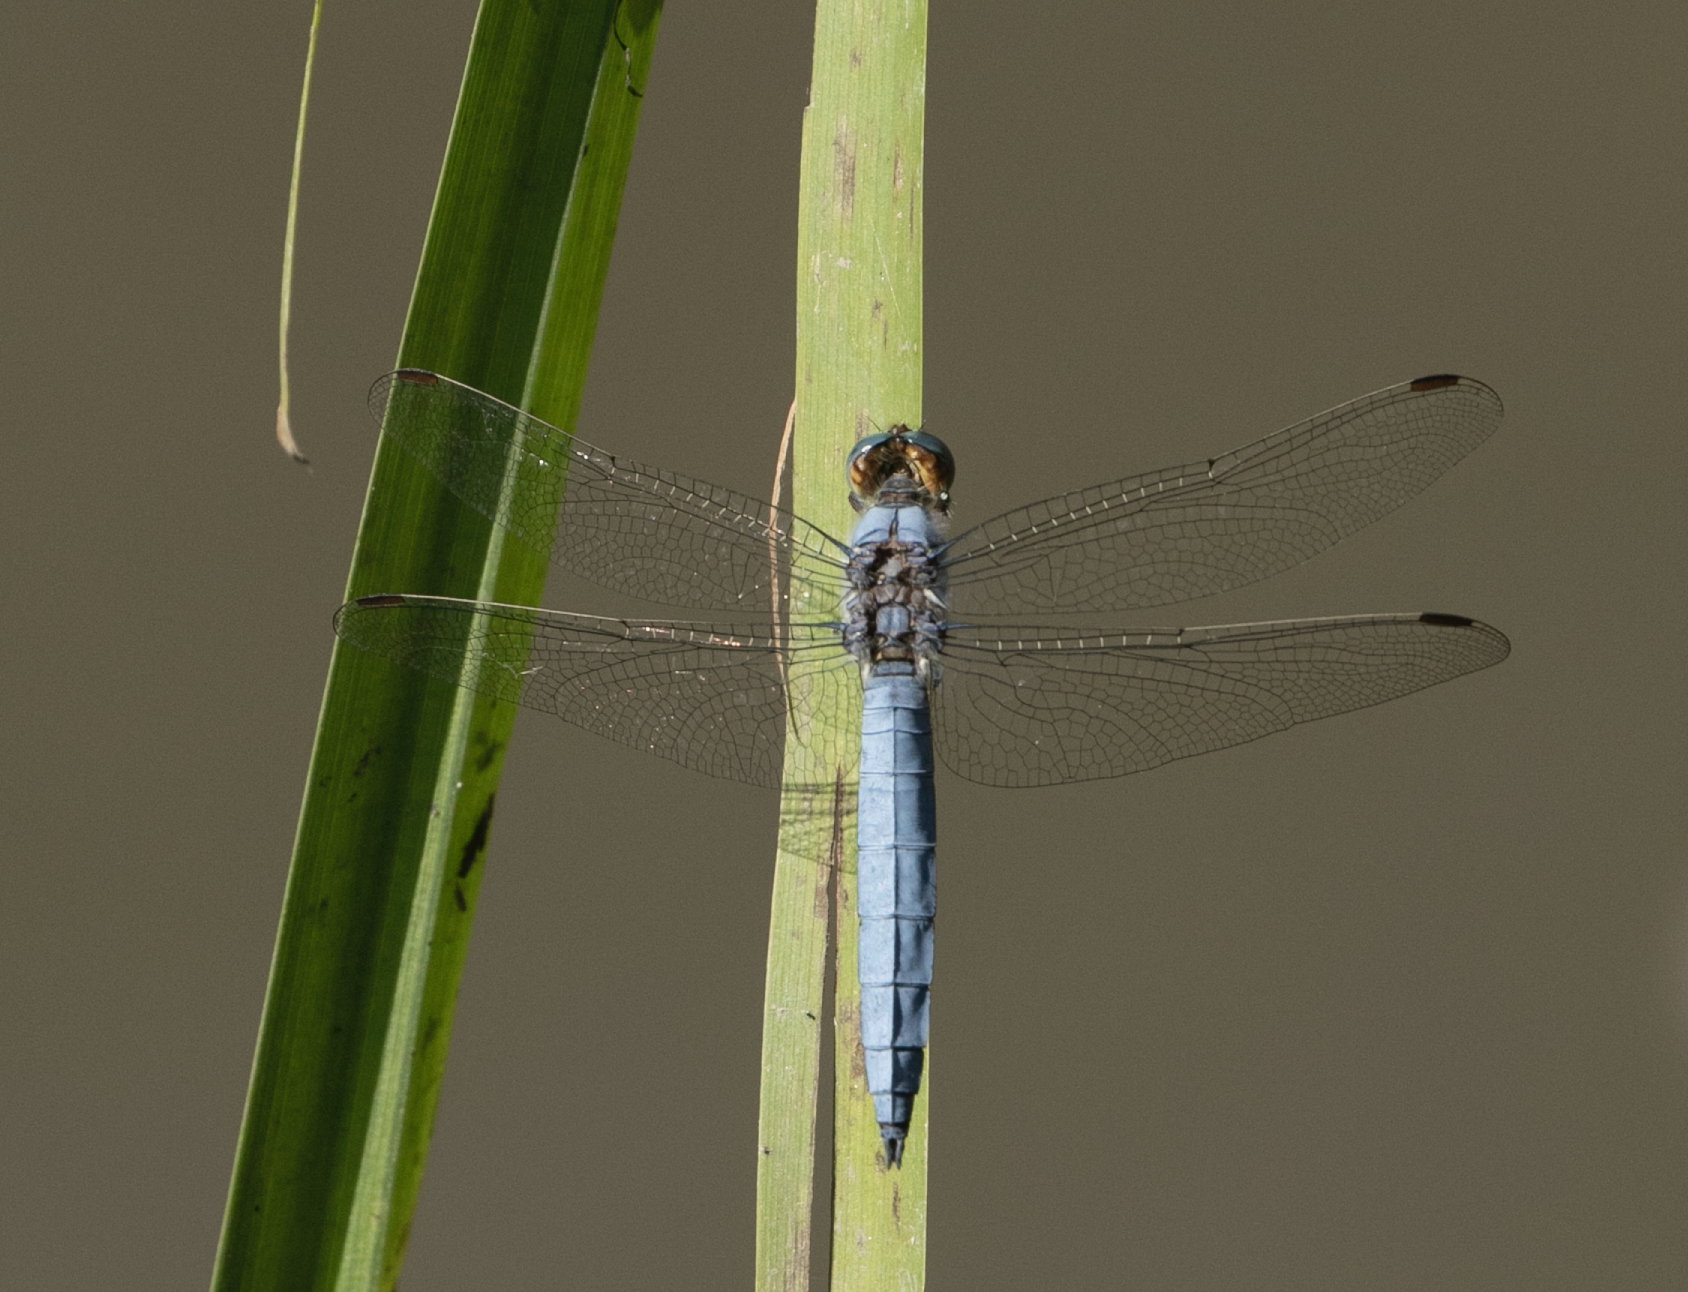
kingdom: Animalia
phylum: Arthropoda
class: Insecta
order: Odonata
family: Libellulidae
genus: Orthetrum
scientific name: Orthetrum brunneum
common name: Southern skimmer
